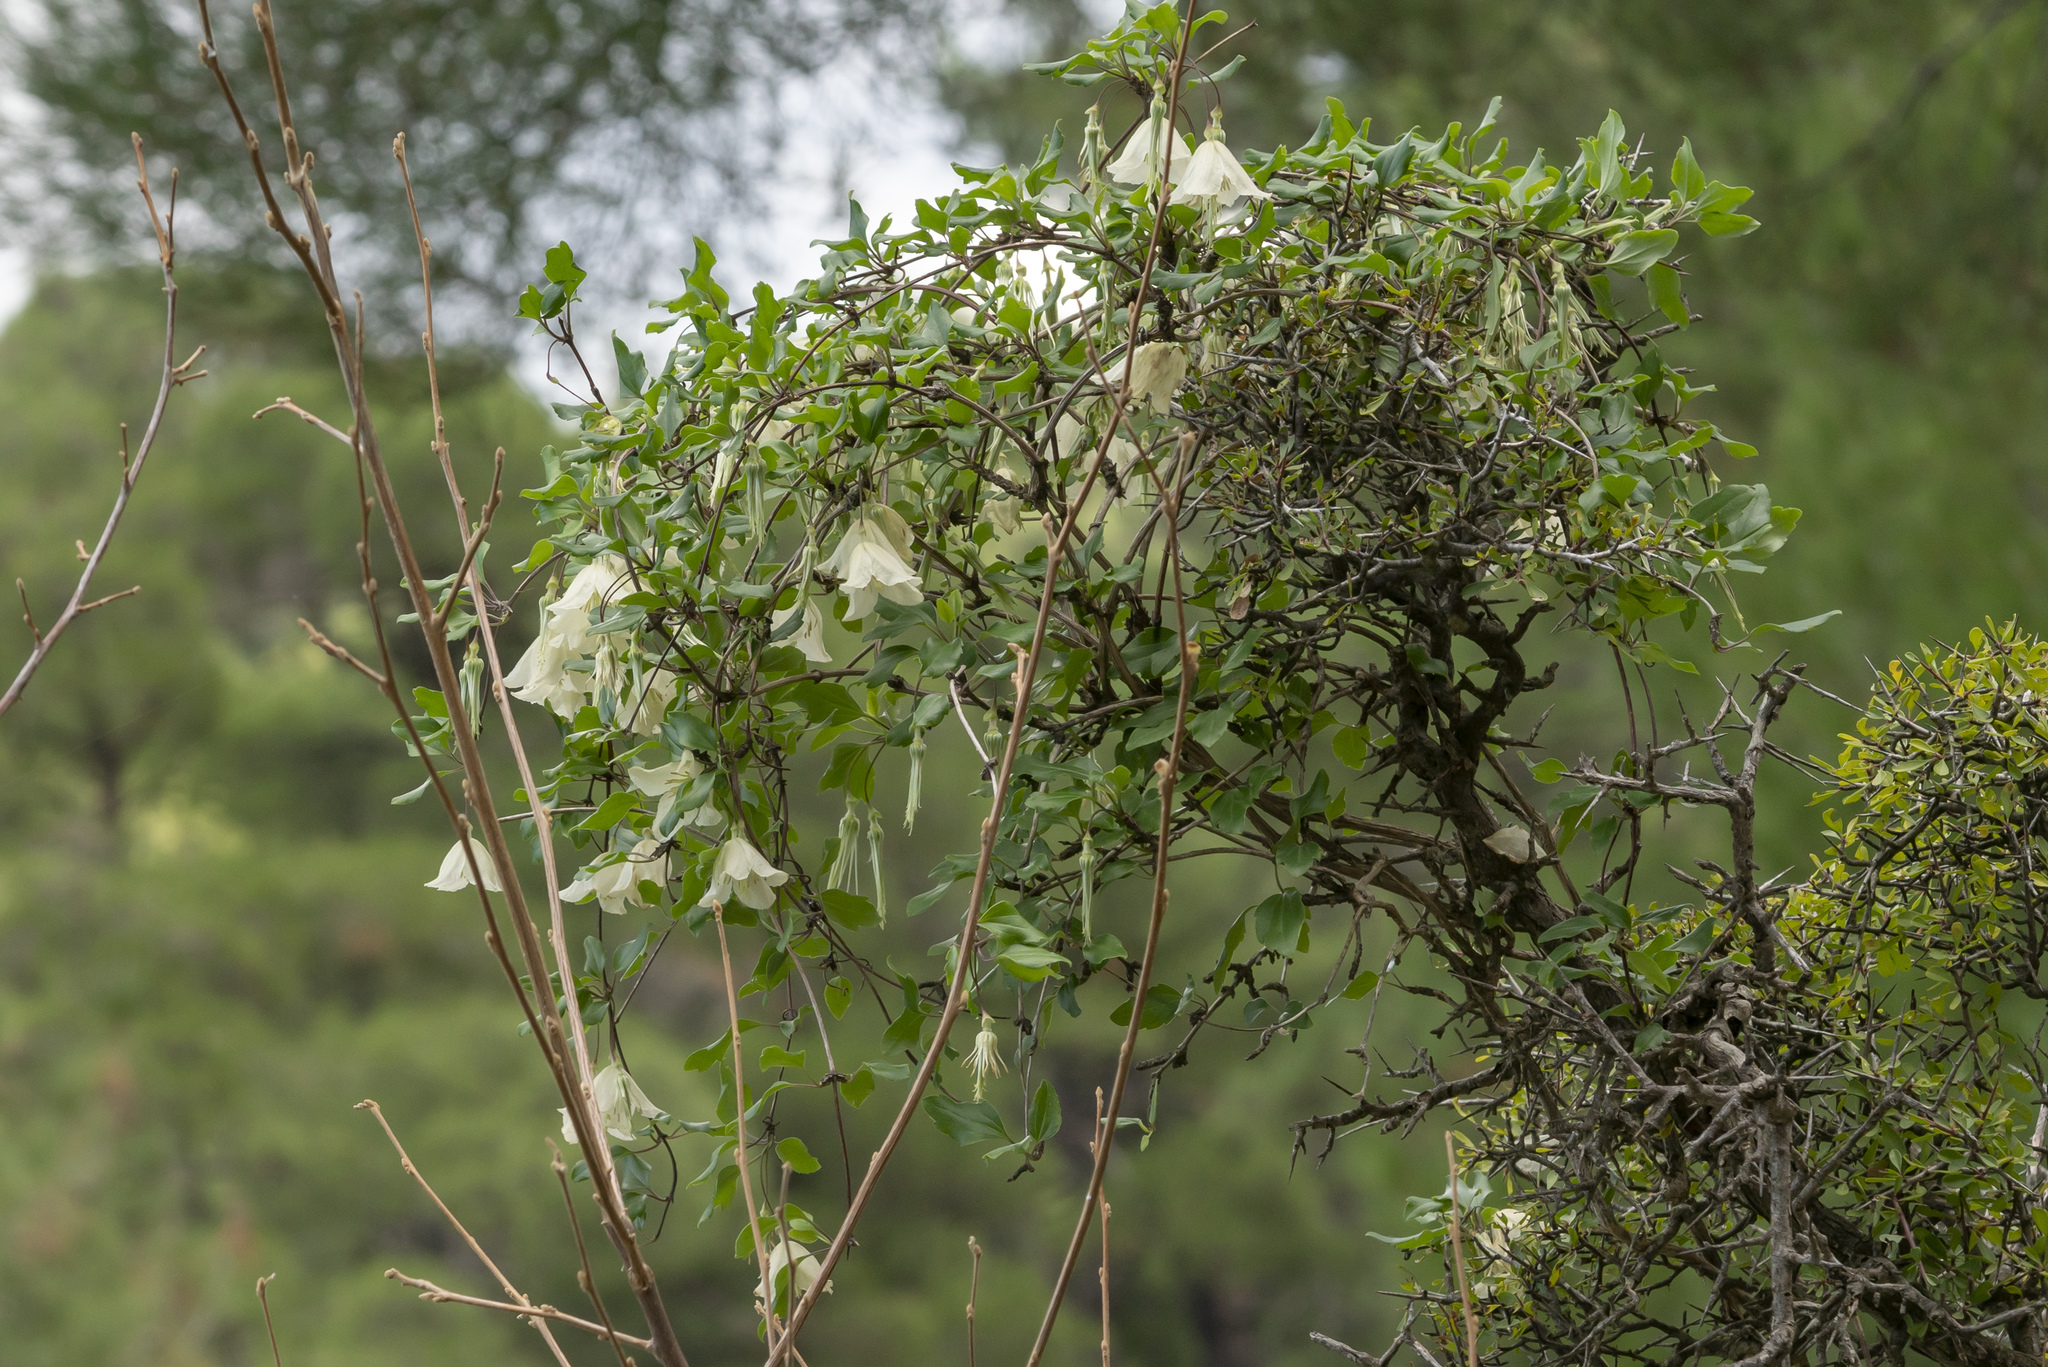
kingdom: Plantae
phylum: Tracheophyta
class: Magnoliopsida
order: Ranunculales
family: Ranunculaceae
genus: Clematis
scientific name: Clematis cirrhosa
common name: Early virgin's-bower
